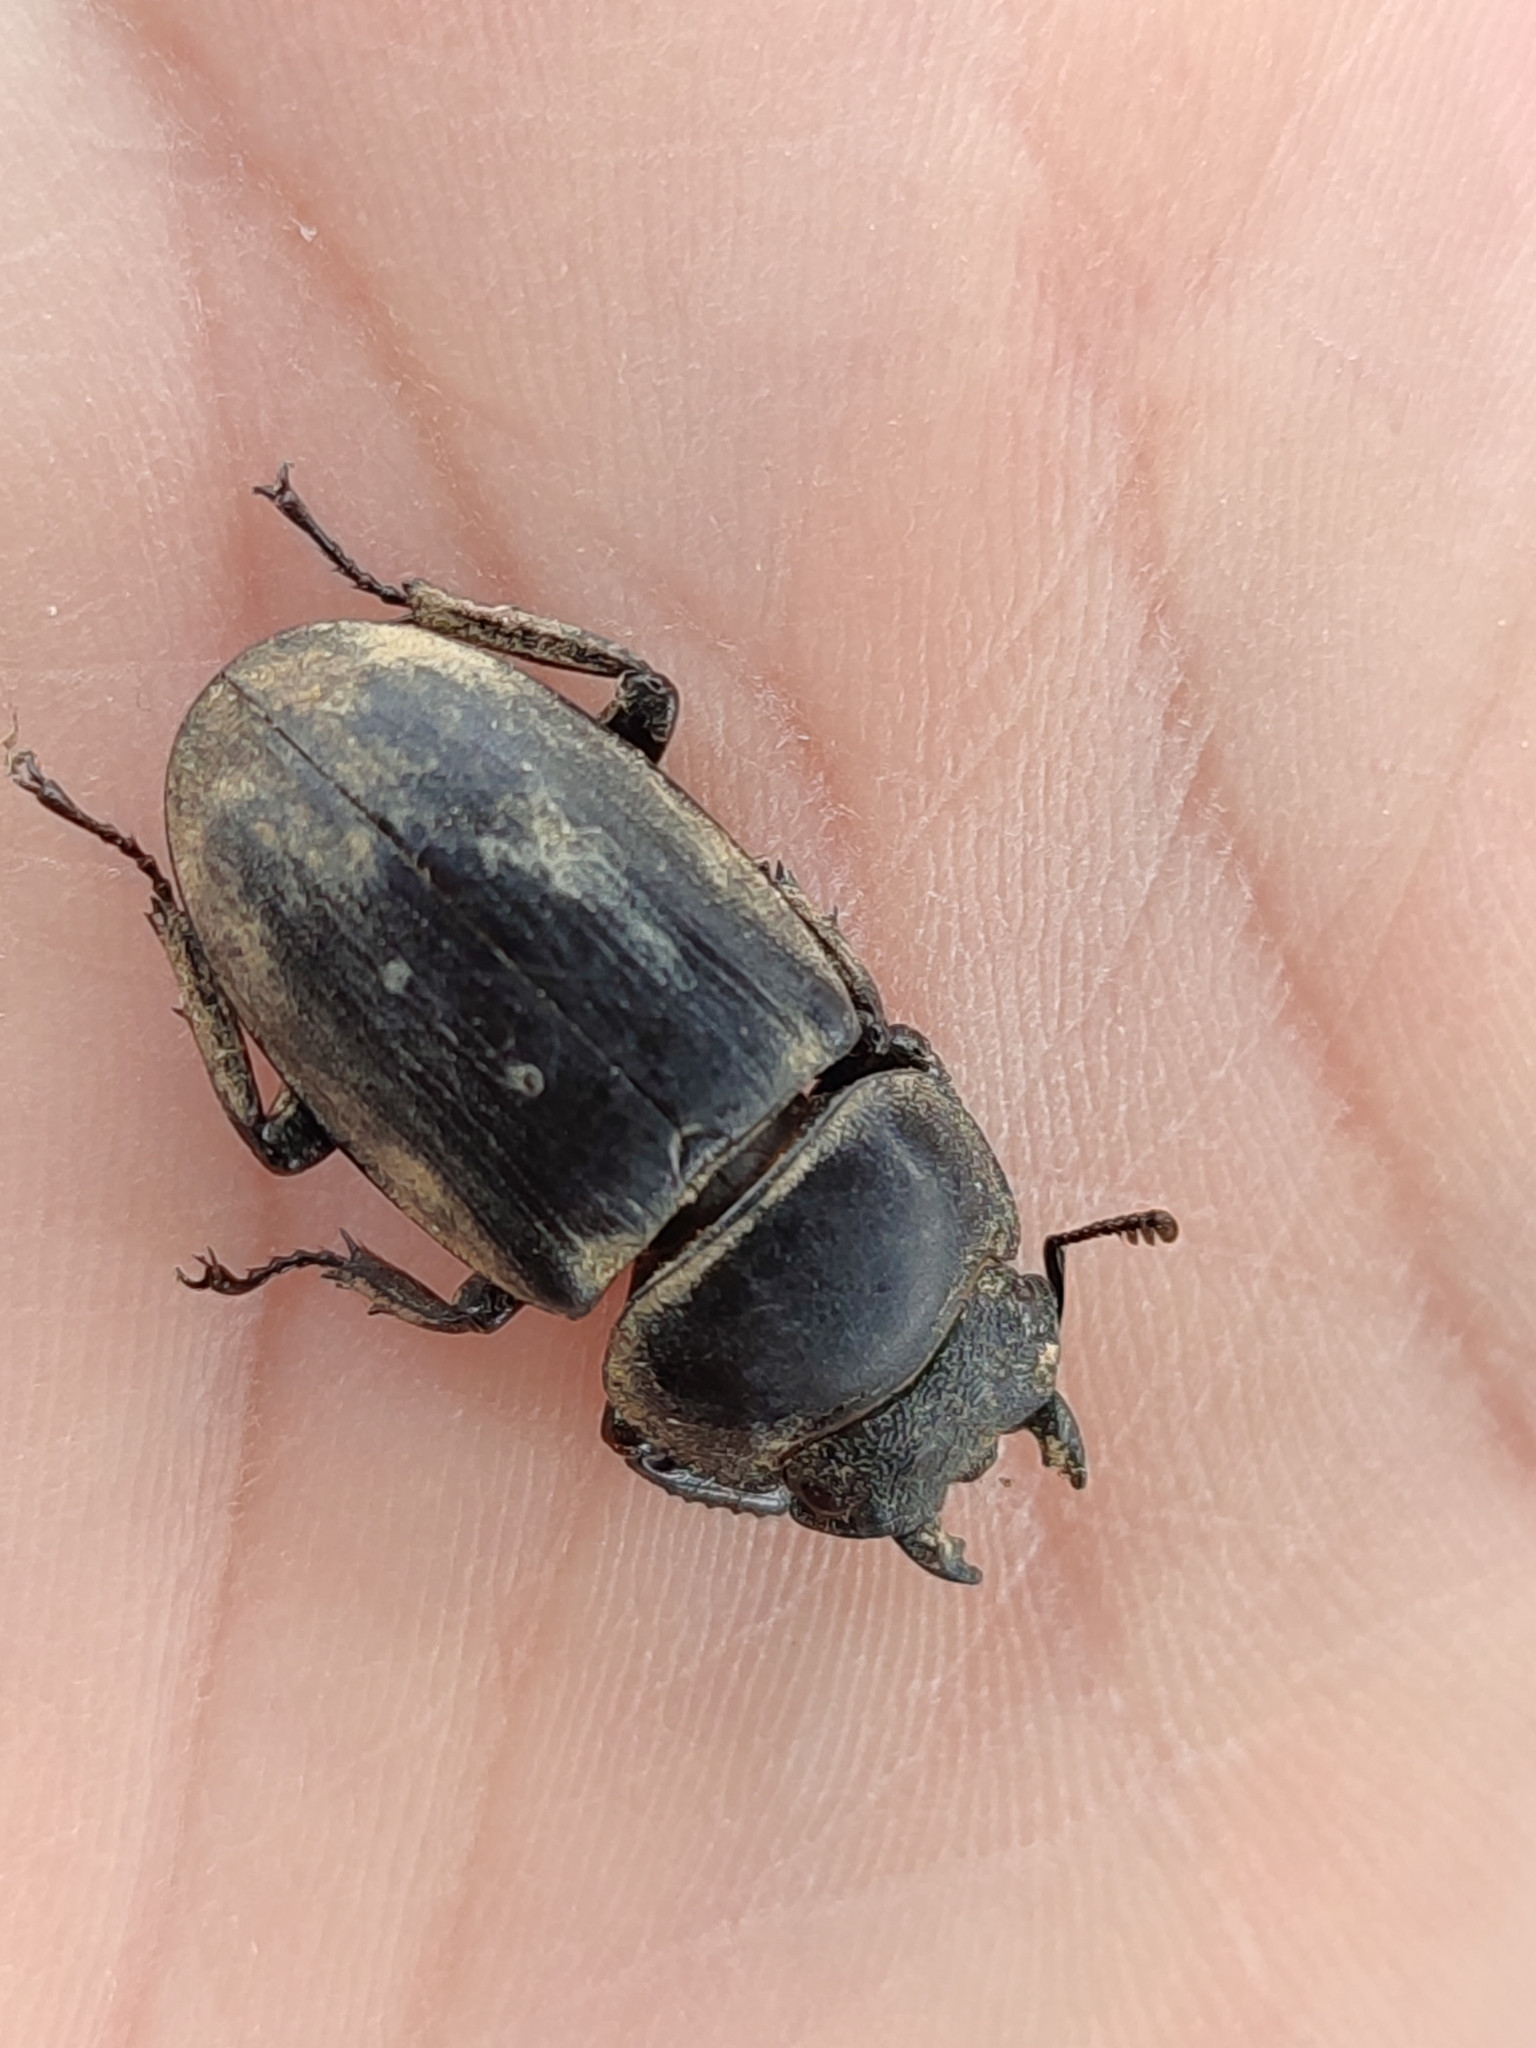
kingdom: Animalia
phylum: Arthropoda
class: Insecta
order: Coleoptera
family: Lucanidae
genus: Serrognathus
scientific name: Serrognathus titanus
